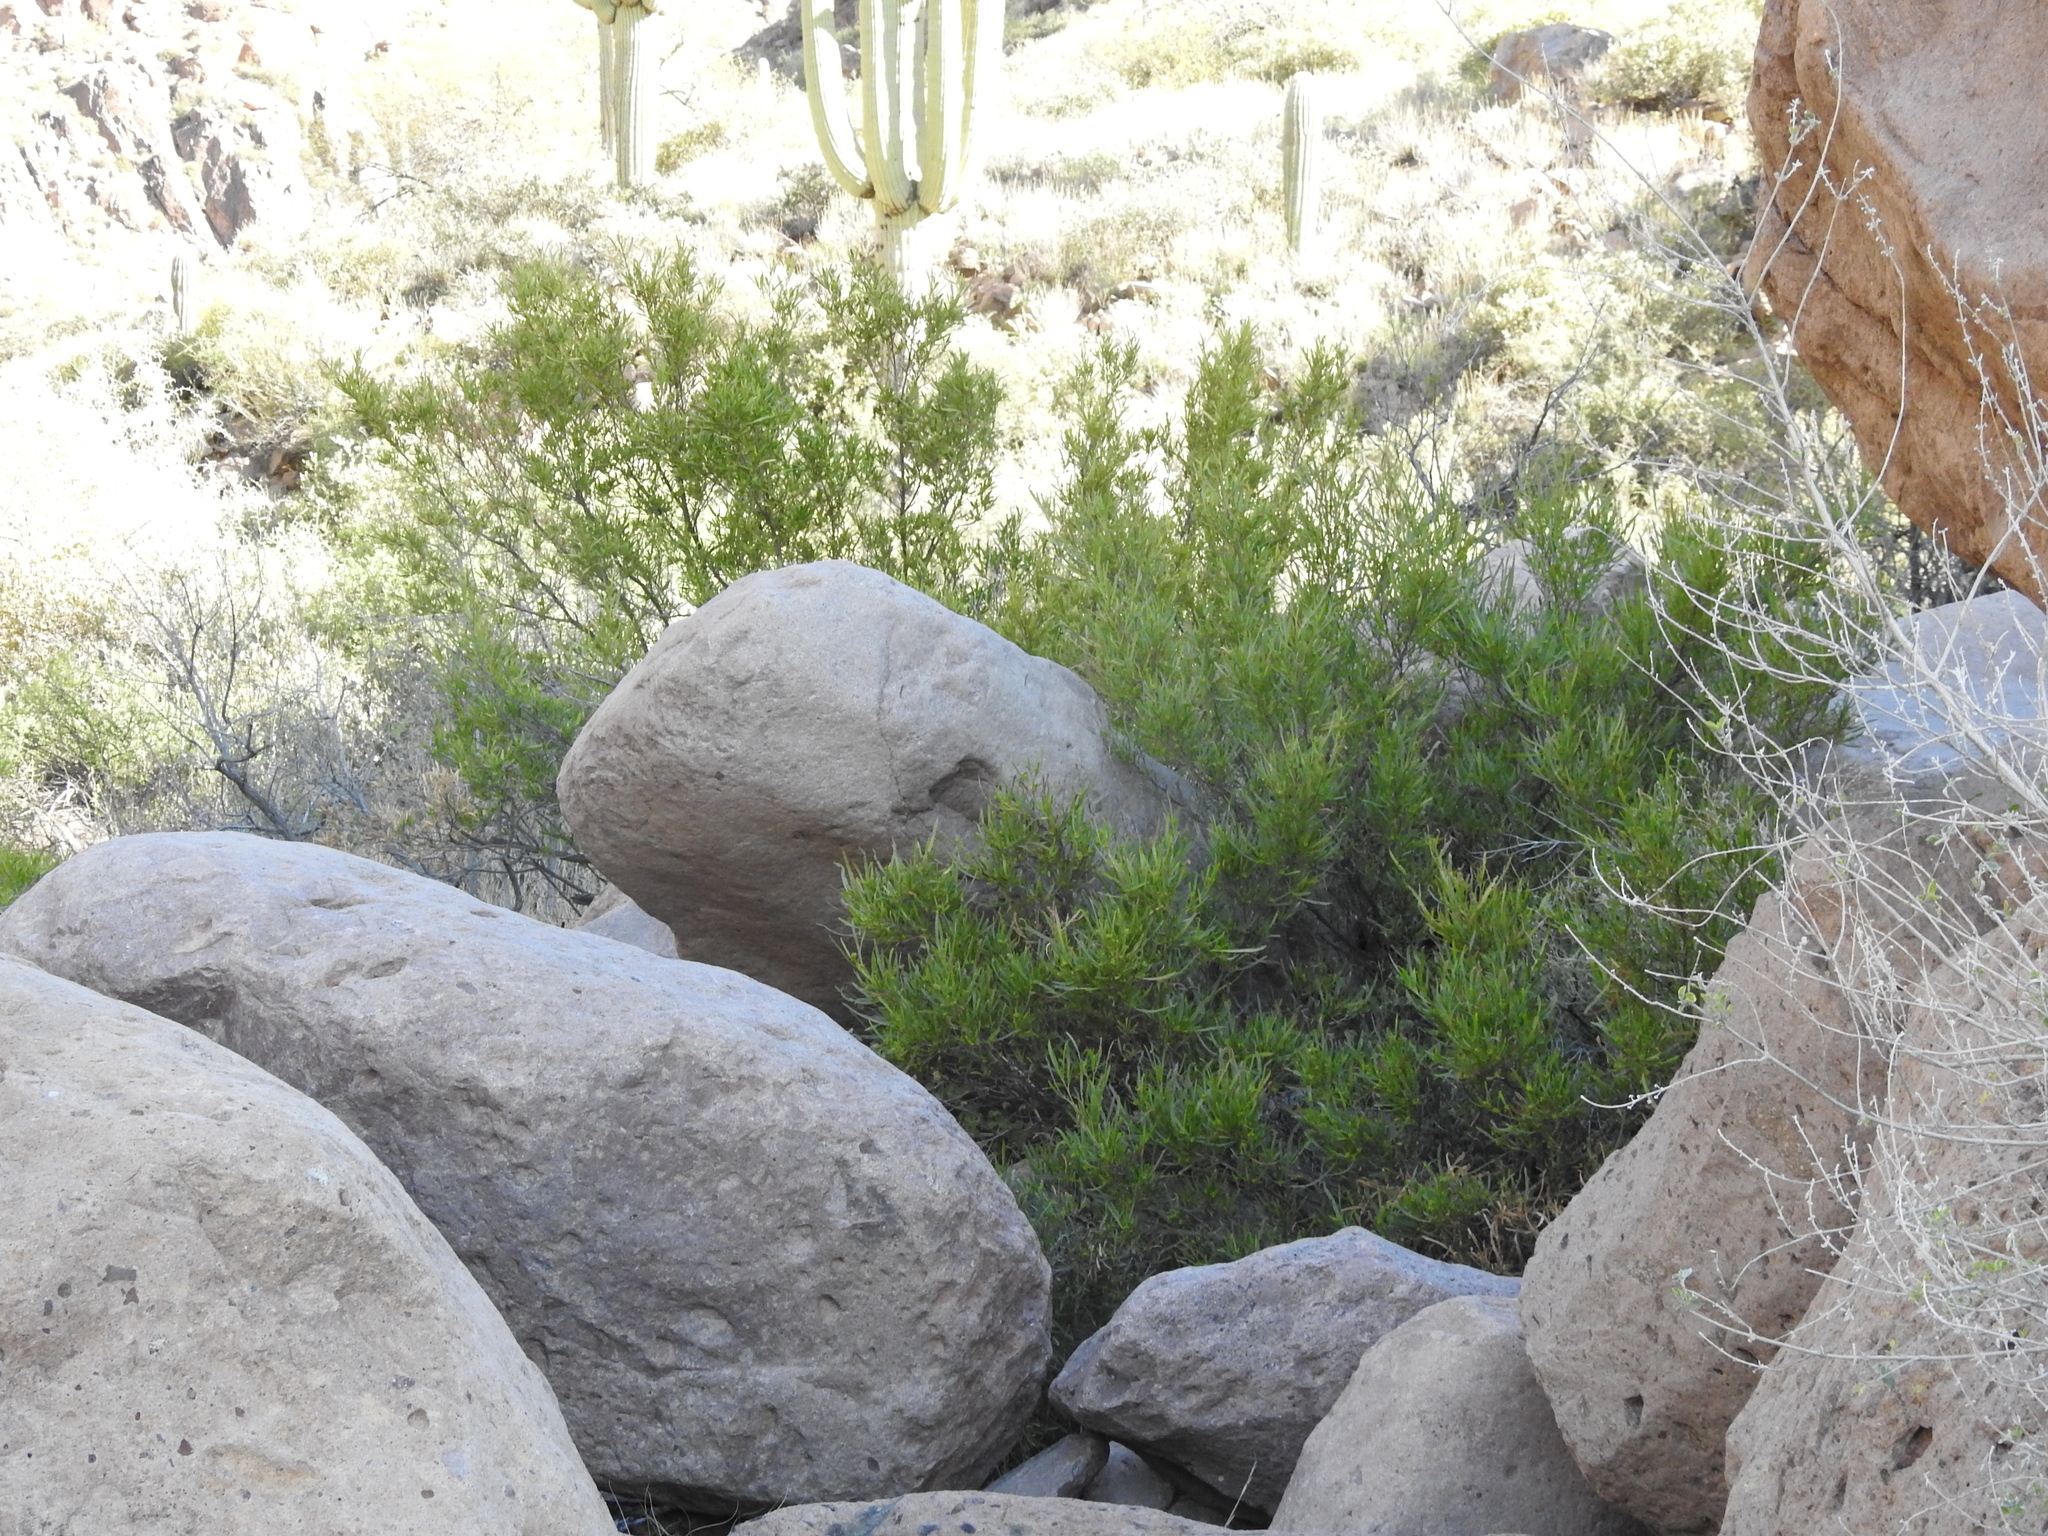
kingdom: Plantae
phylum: Tracheophyta
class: Magnoliopsida
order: Sapindales
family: Sapindaceae
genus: Dodonaea
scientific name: Dodonaea viscosa
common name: Hopbush
